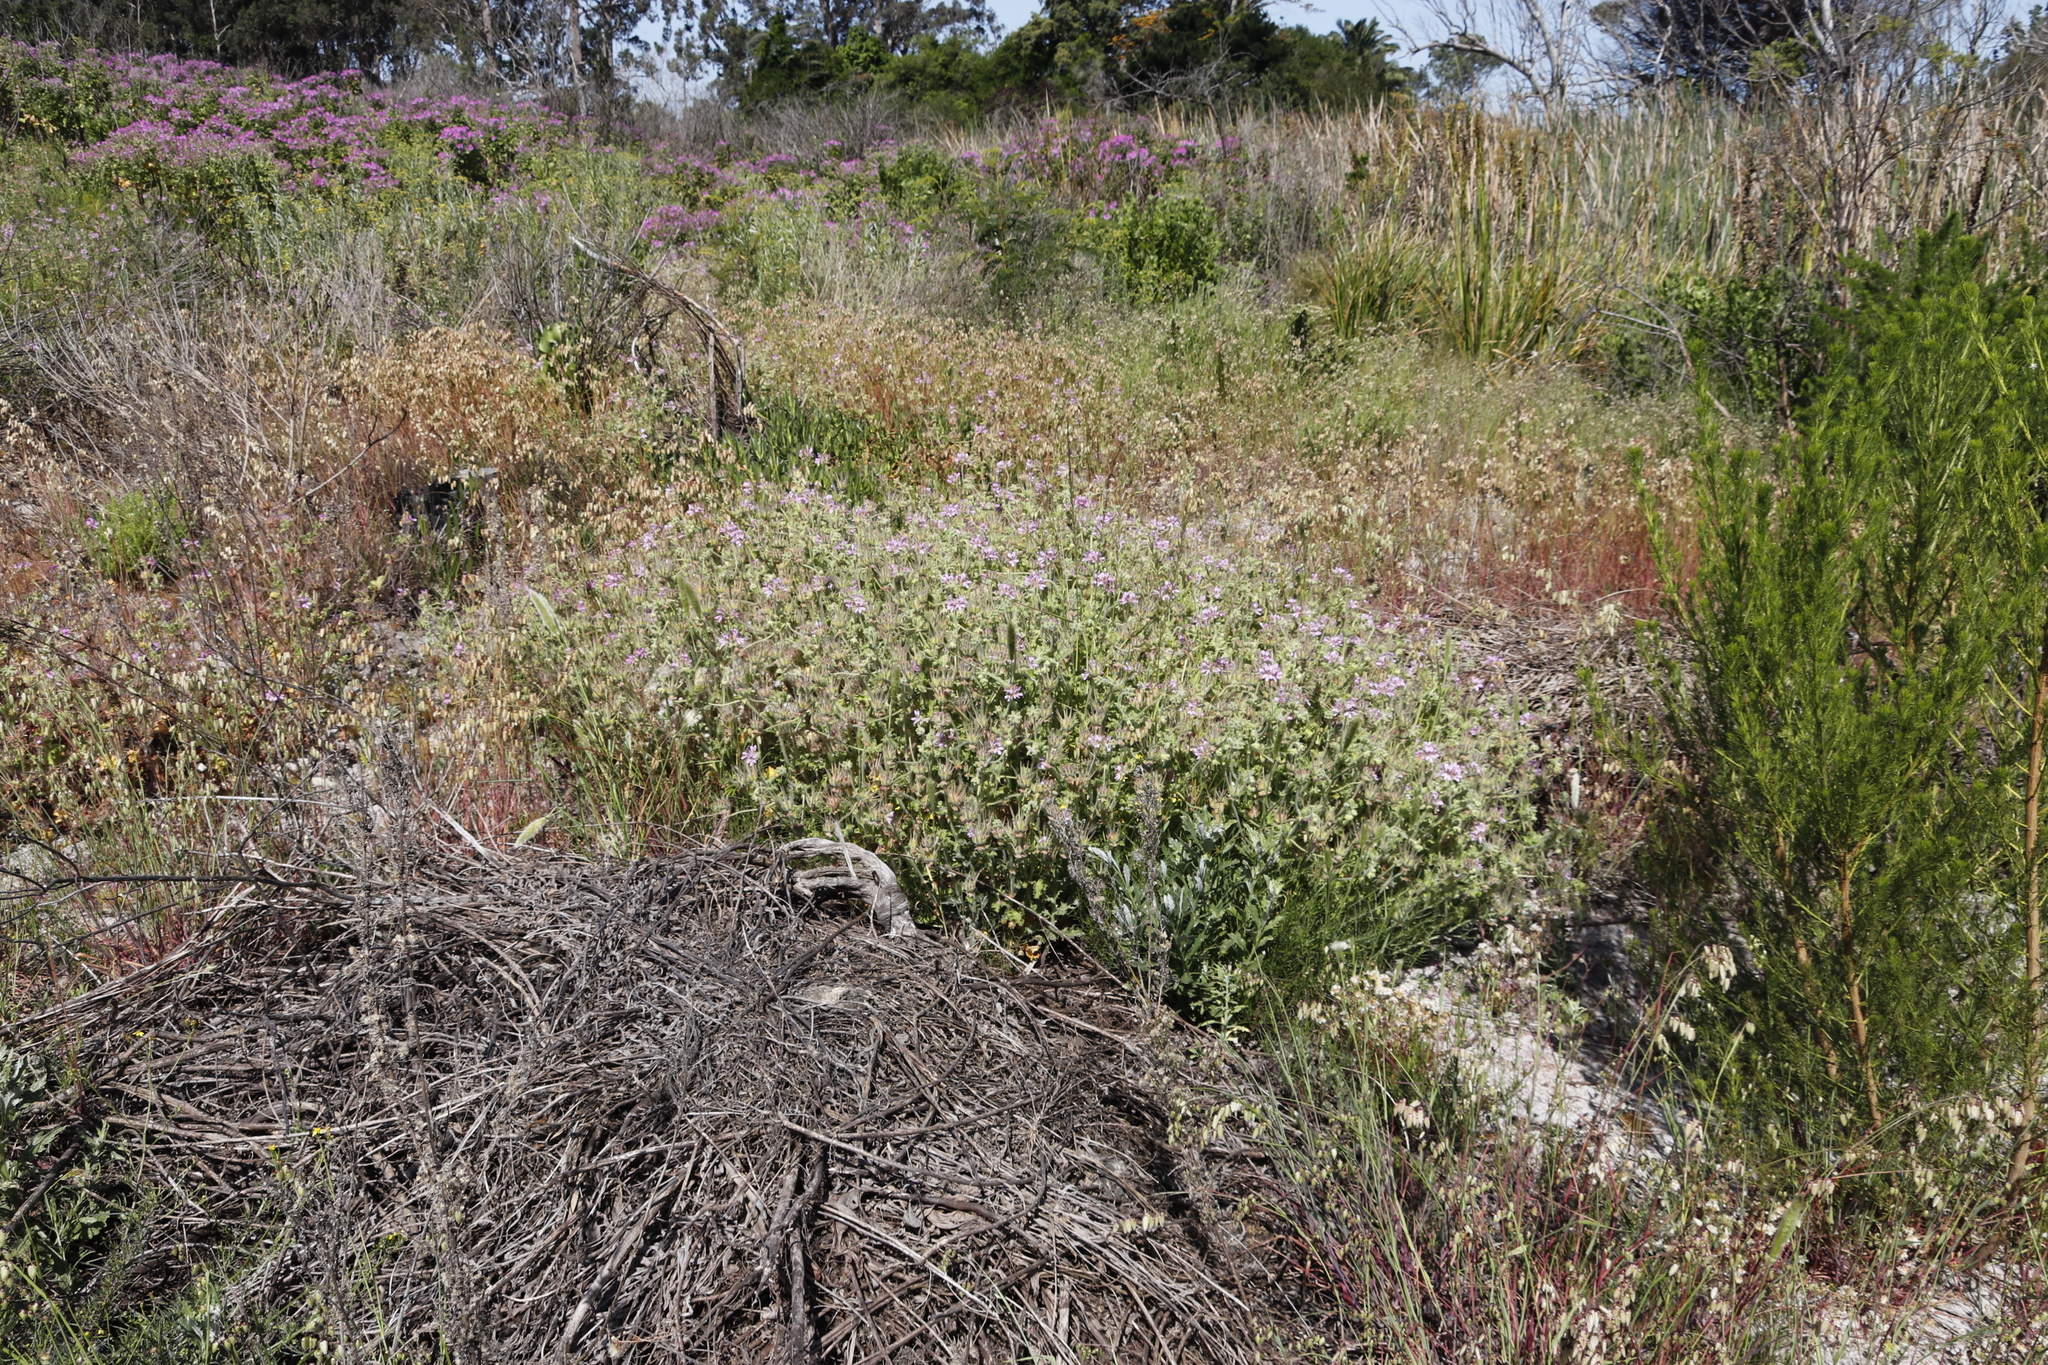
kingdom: Plantae
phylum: Tracheophyta
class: Magnoliopsida
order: Geraniales
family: Geraniaceae
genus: Pelargonium
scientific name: Pelargonium capitatum
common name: Rose scented geranium
